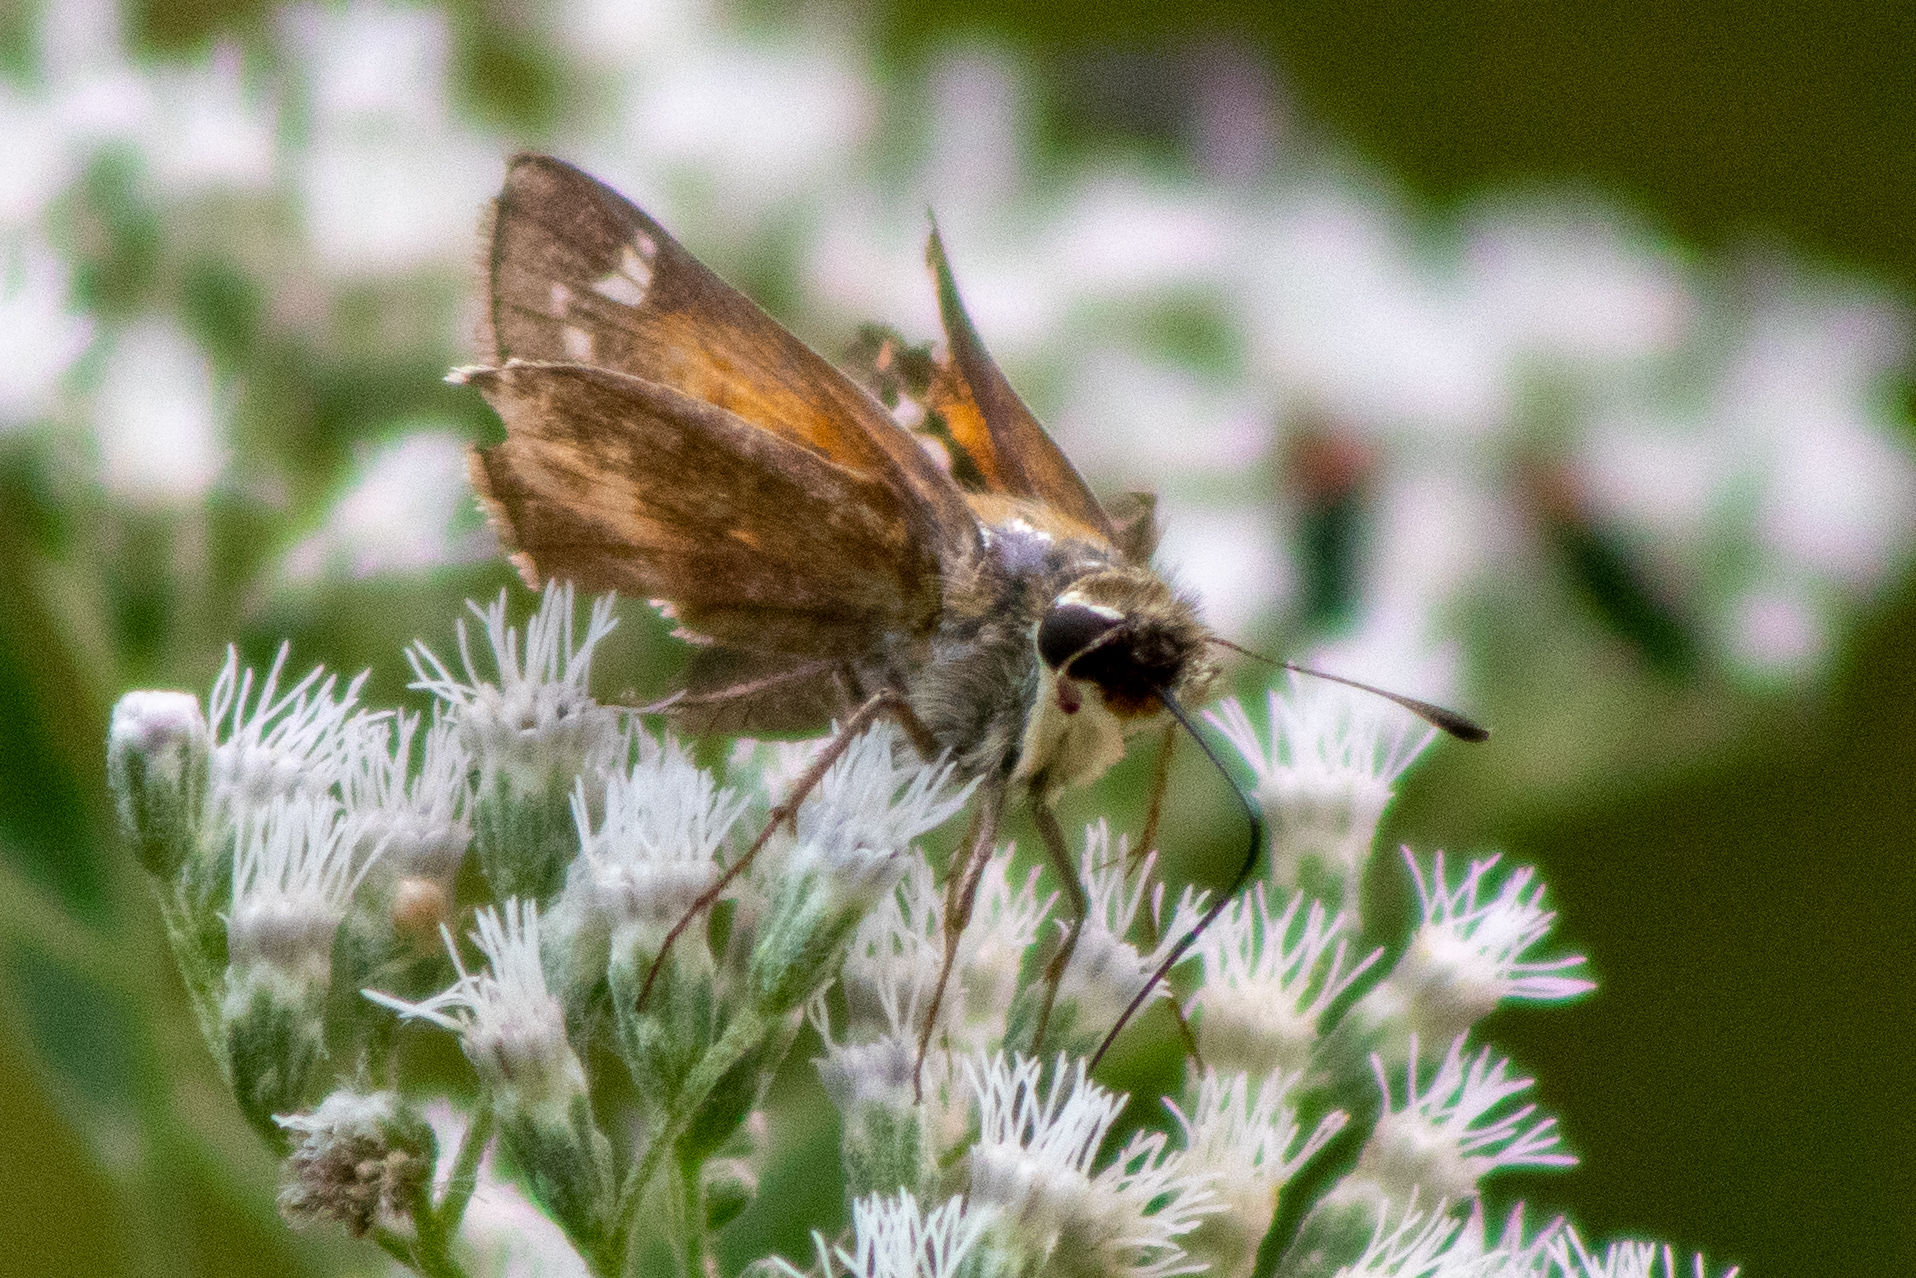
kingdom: Animalia
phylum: Arthropoda
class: Insecta
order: Lepidoptera
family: Hesperiidae
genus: Atalopedes
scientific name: Atalopedes
